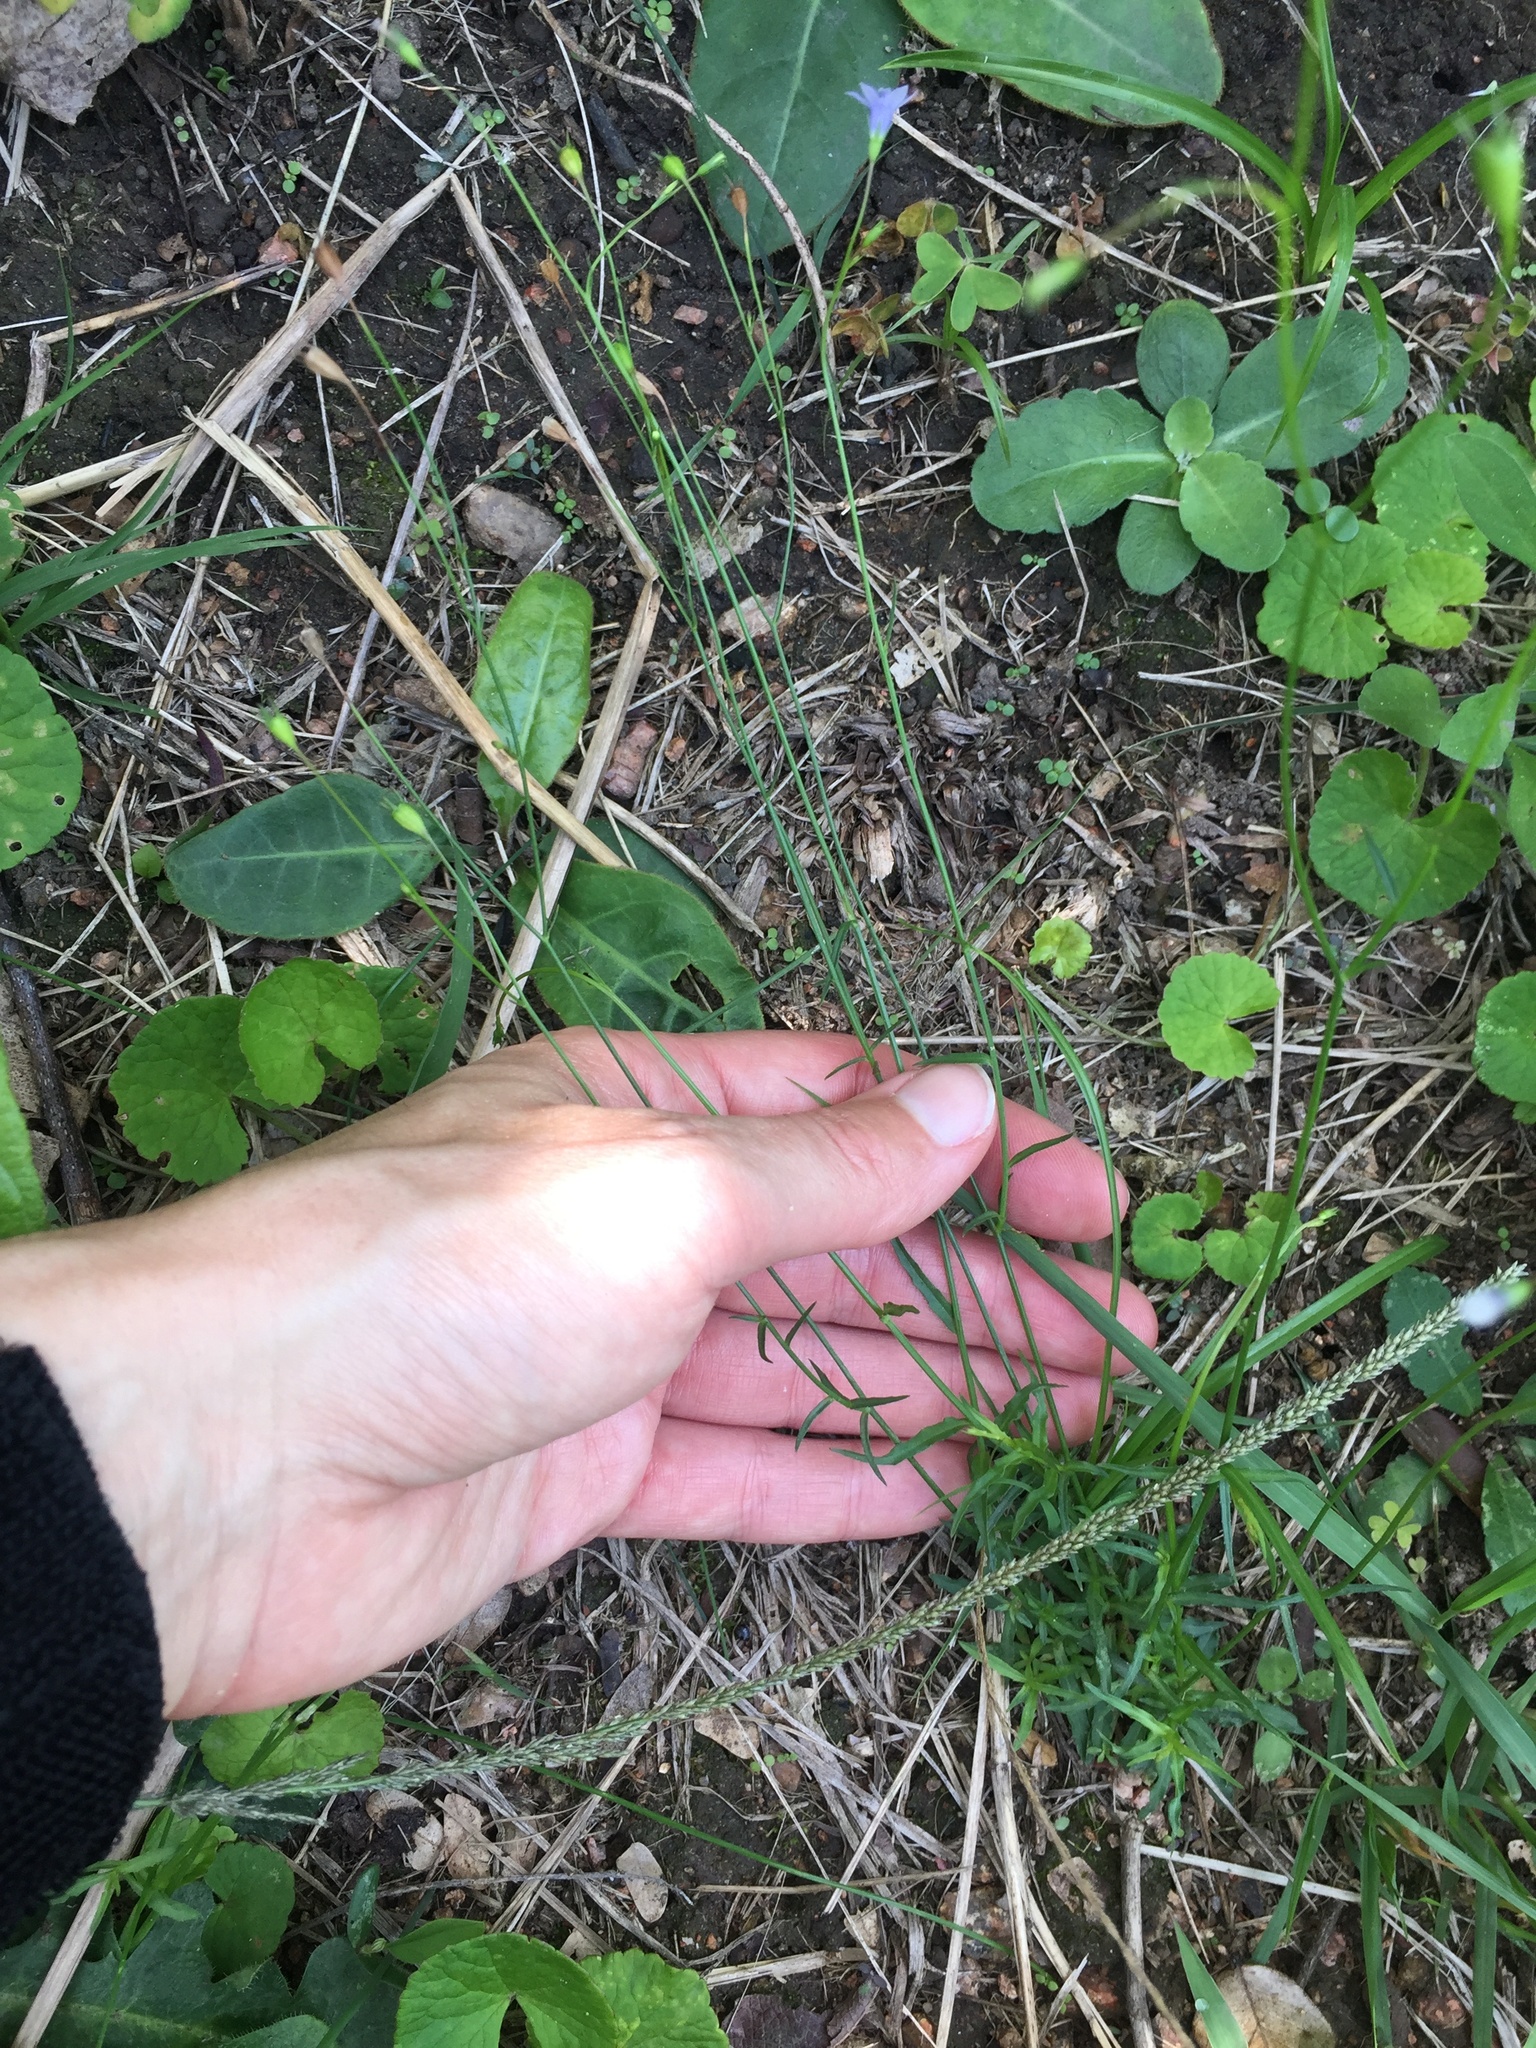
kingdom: Plantae
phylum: Tracheophyta
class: Magnoliopsida
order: Asterales
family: Campanulaceae
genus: Wahlenbergia
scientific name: Wahlenbergia krebsii
